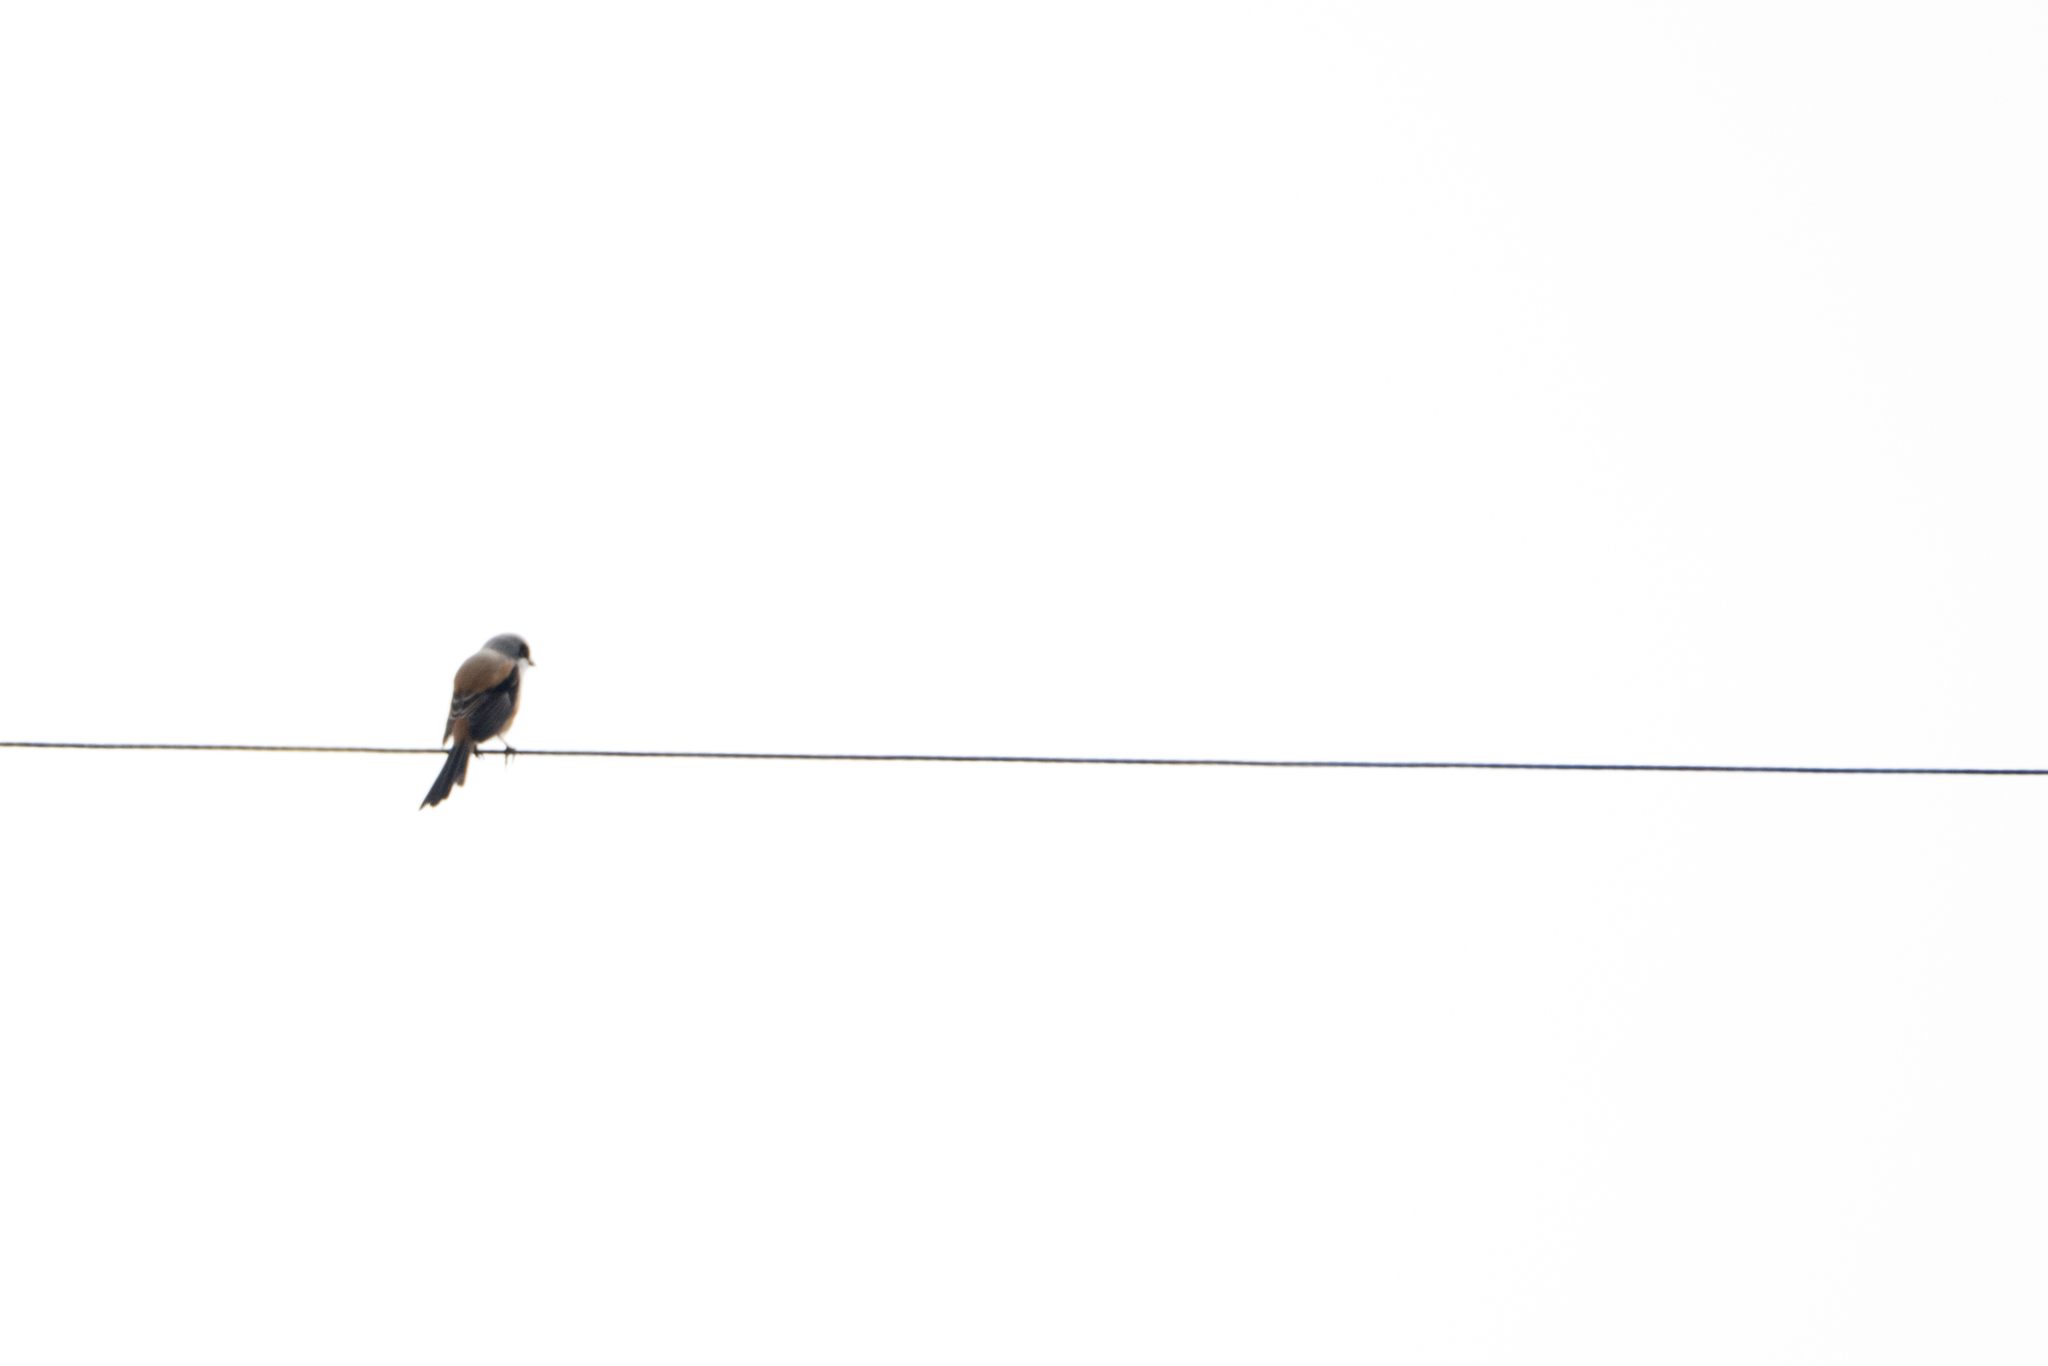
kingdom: Animalia
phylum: Chordata
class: Aves
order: Passeriformes
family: Laniidae
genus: Lanius
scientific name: Lanius schach
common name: Long-tailed shrike
